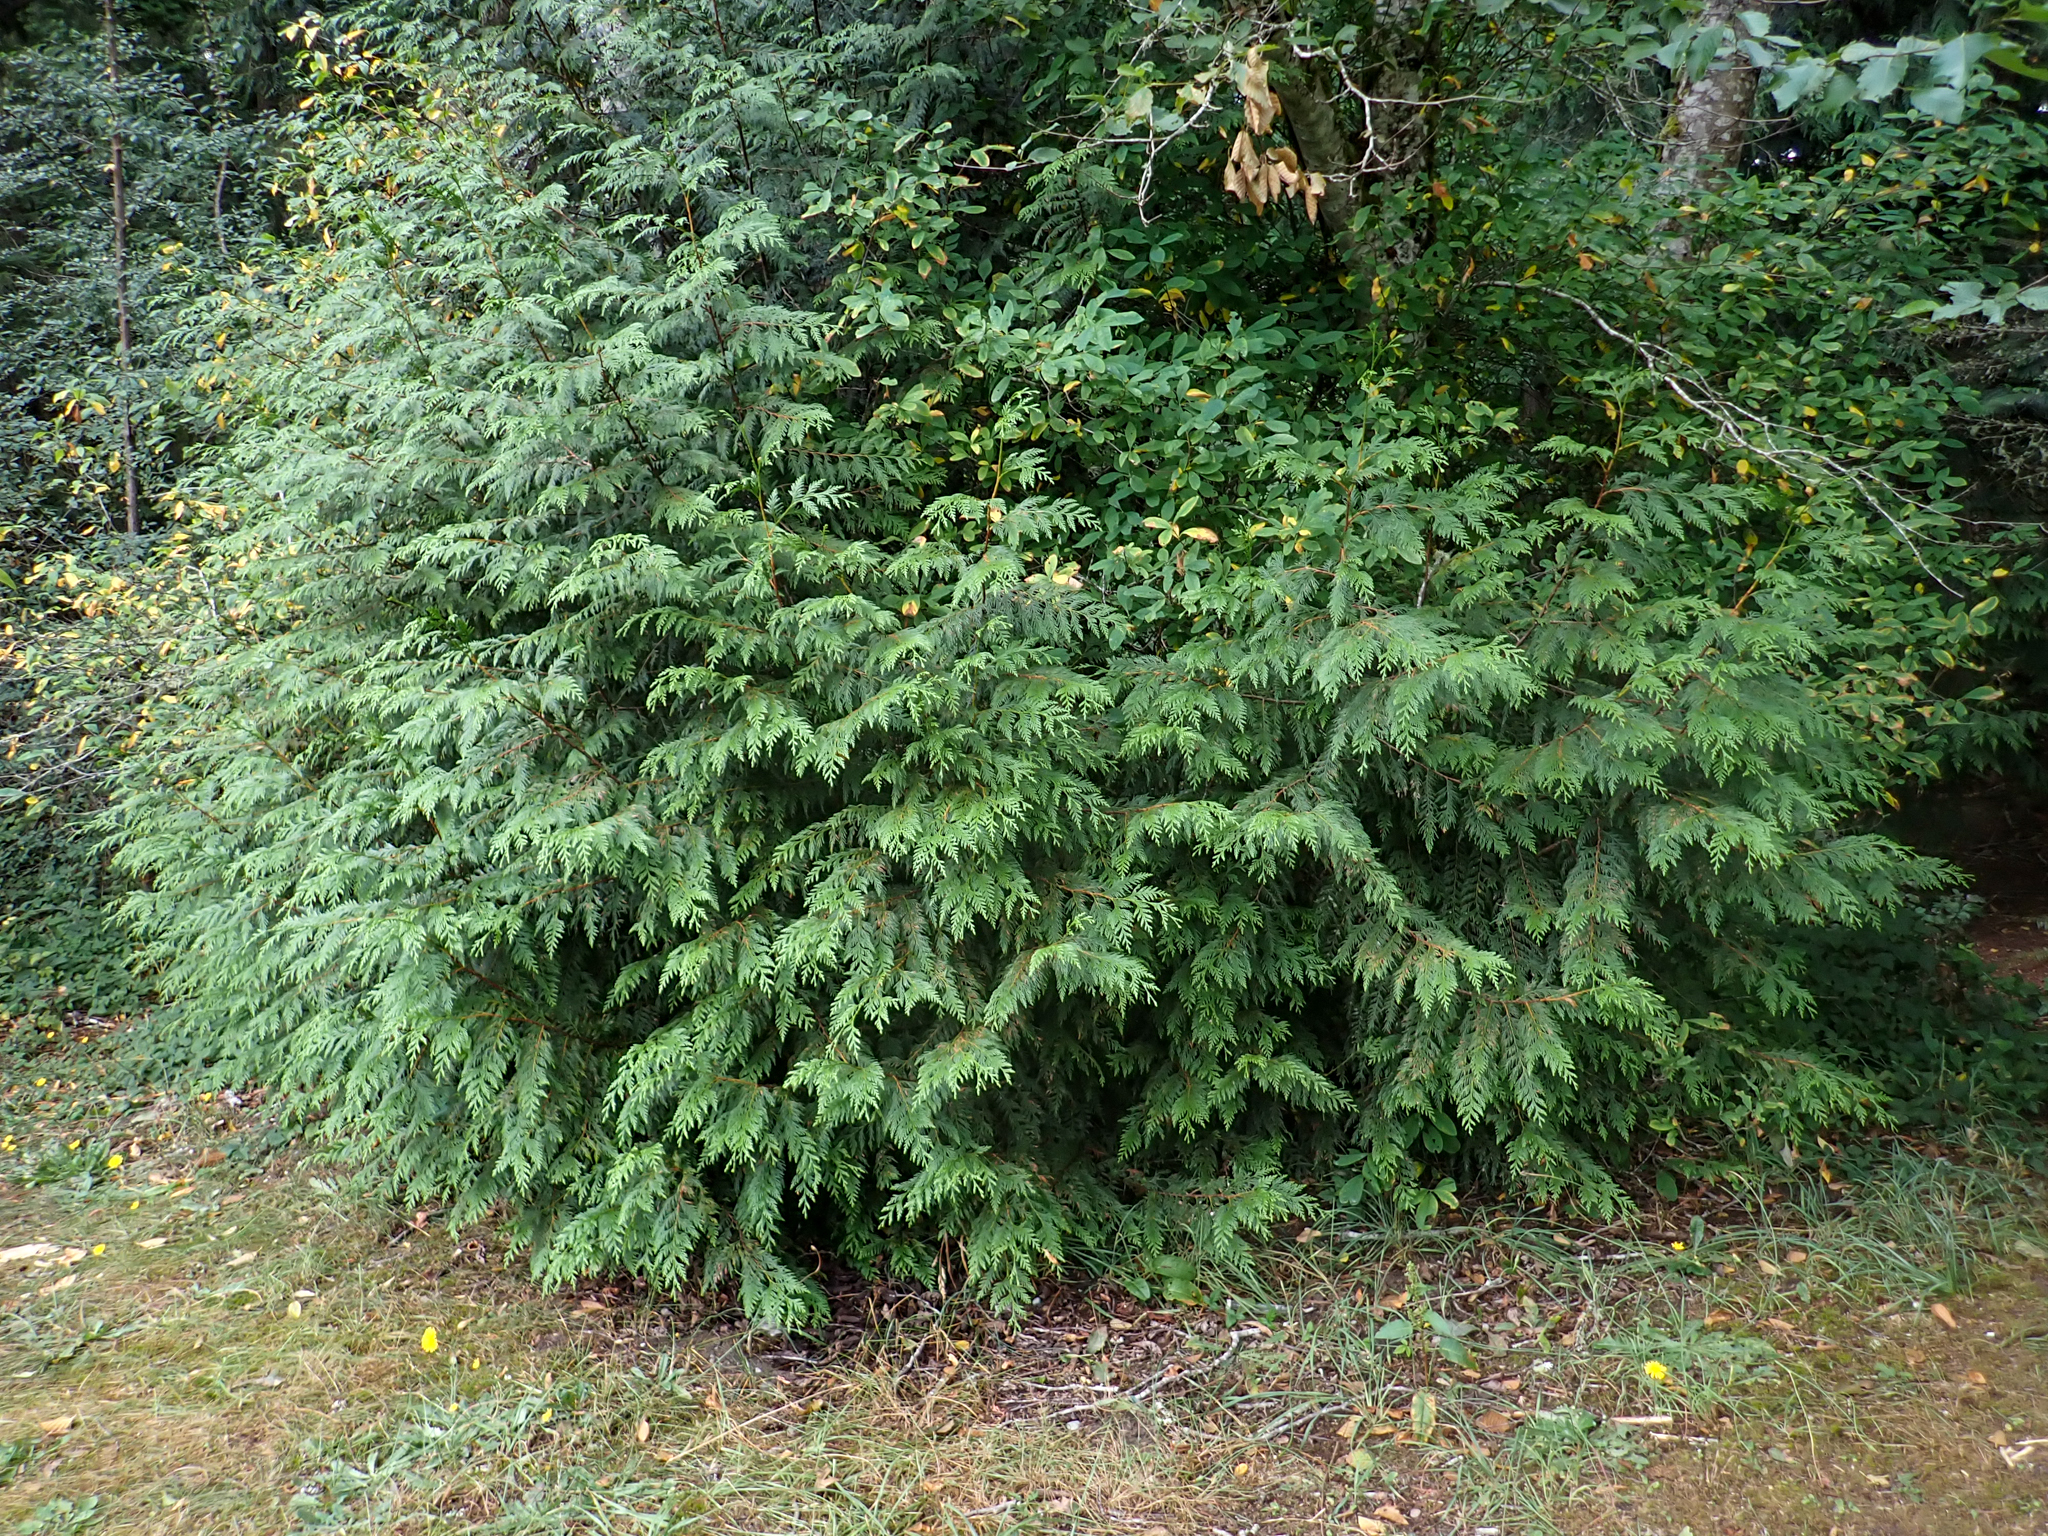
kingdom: Plantae
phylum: Tracheophyta
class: Pinopsida
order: Pinales
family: Cupressaceae
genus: Thuja
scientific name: Thuja plicata
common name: Western red-cedar
